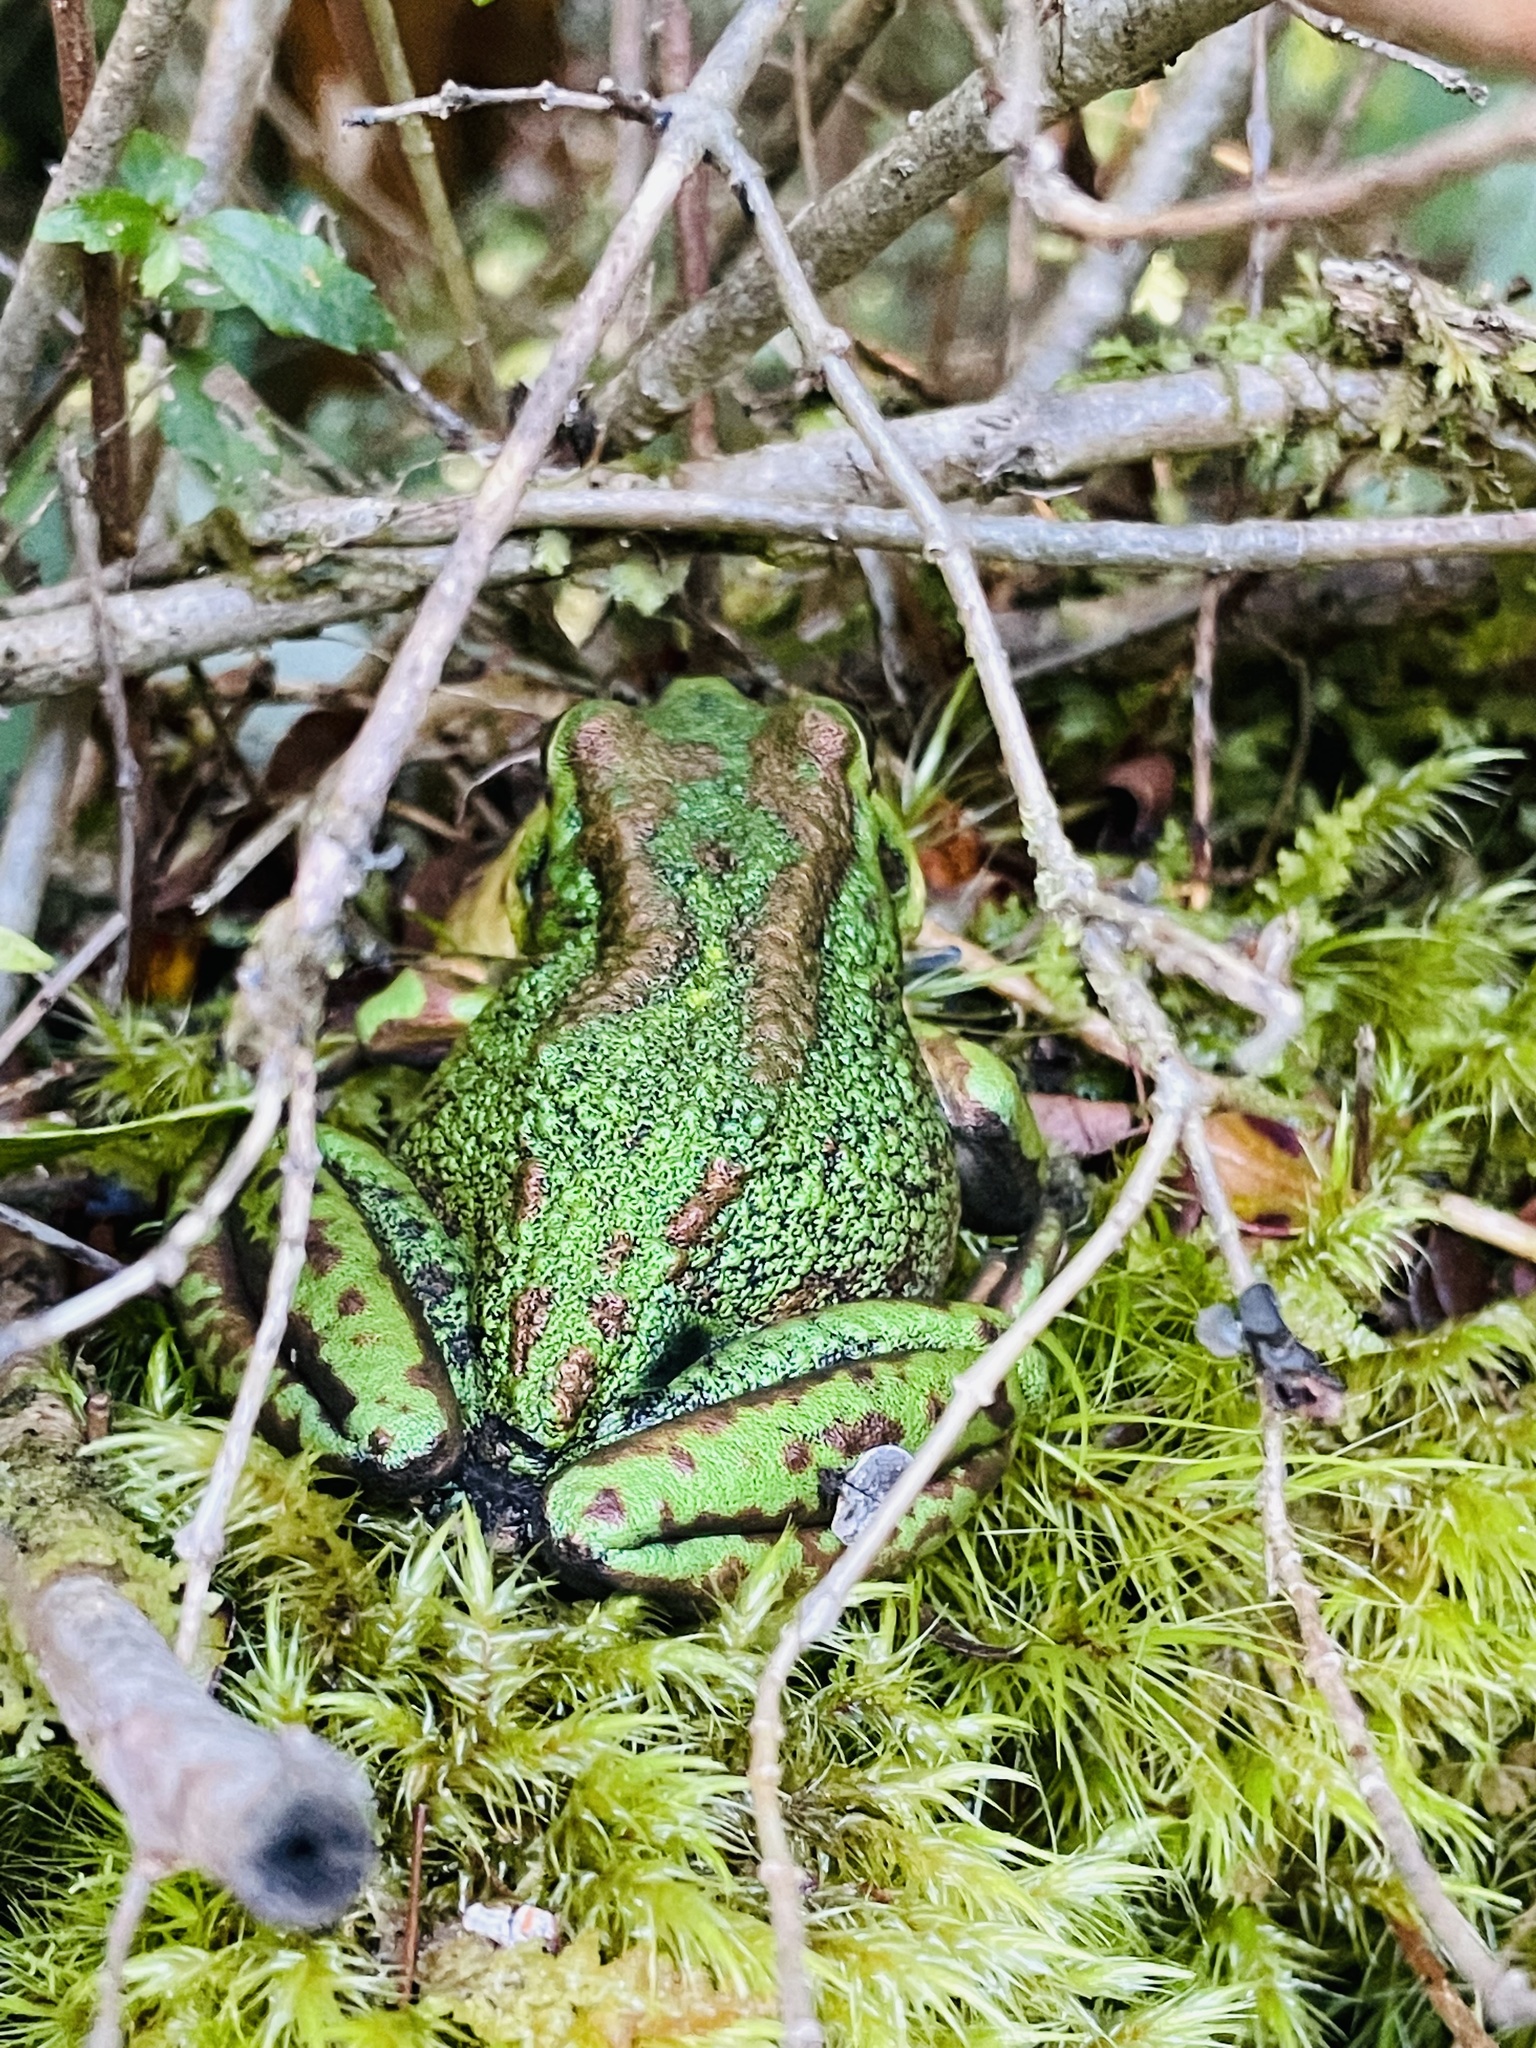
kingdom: Animalia
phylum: Chordata
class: Amphibia
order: Anura
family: Batrachylidae
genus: Hylorina
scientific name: Hylorina sylvatica
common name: Emerald forest frog
